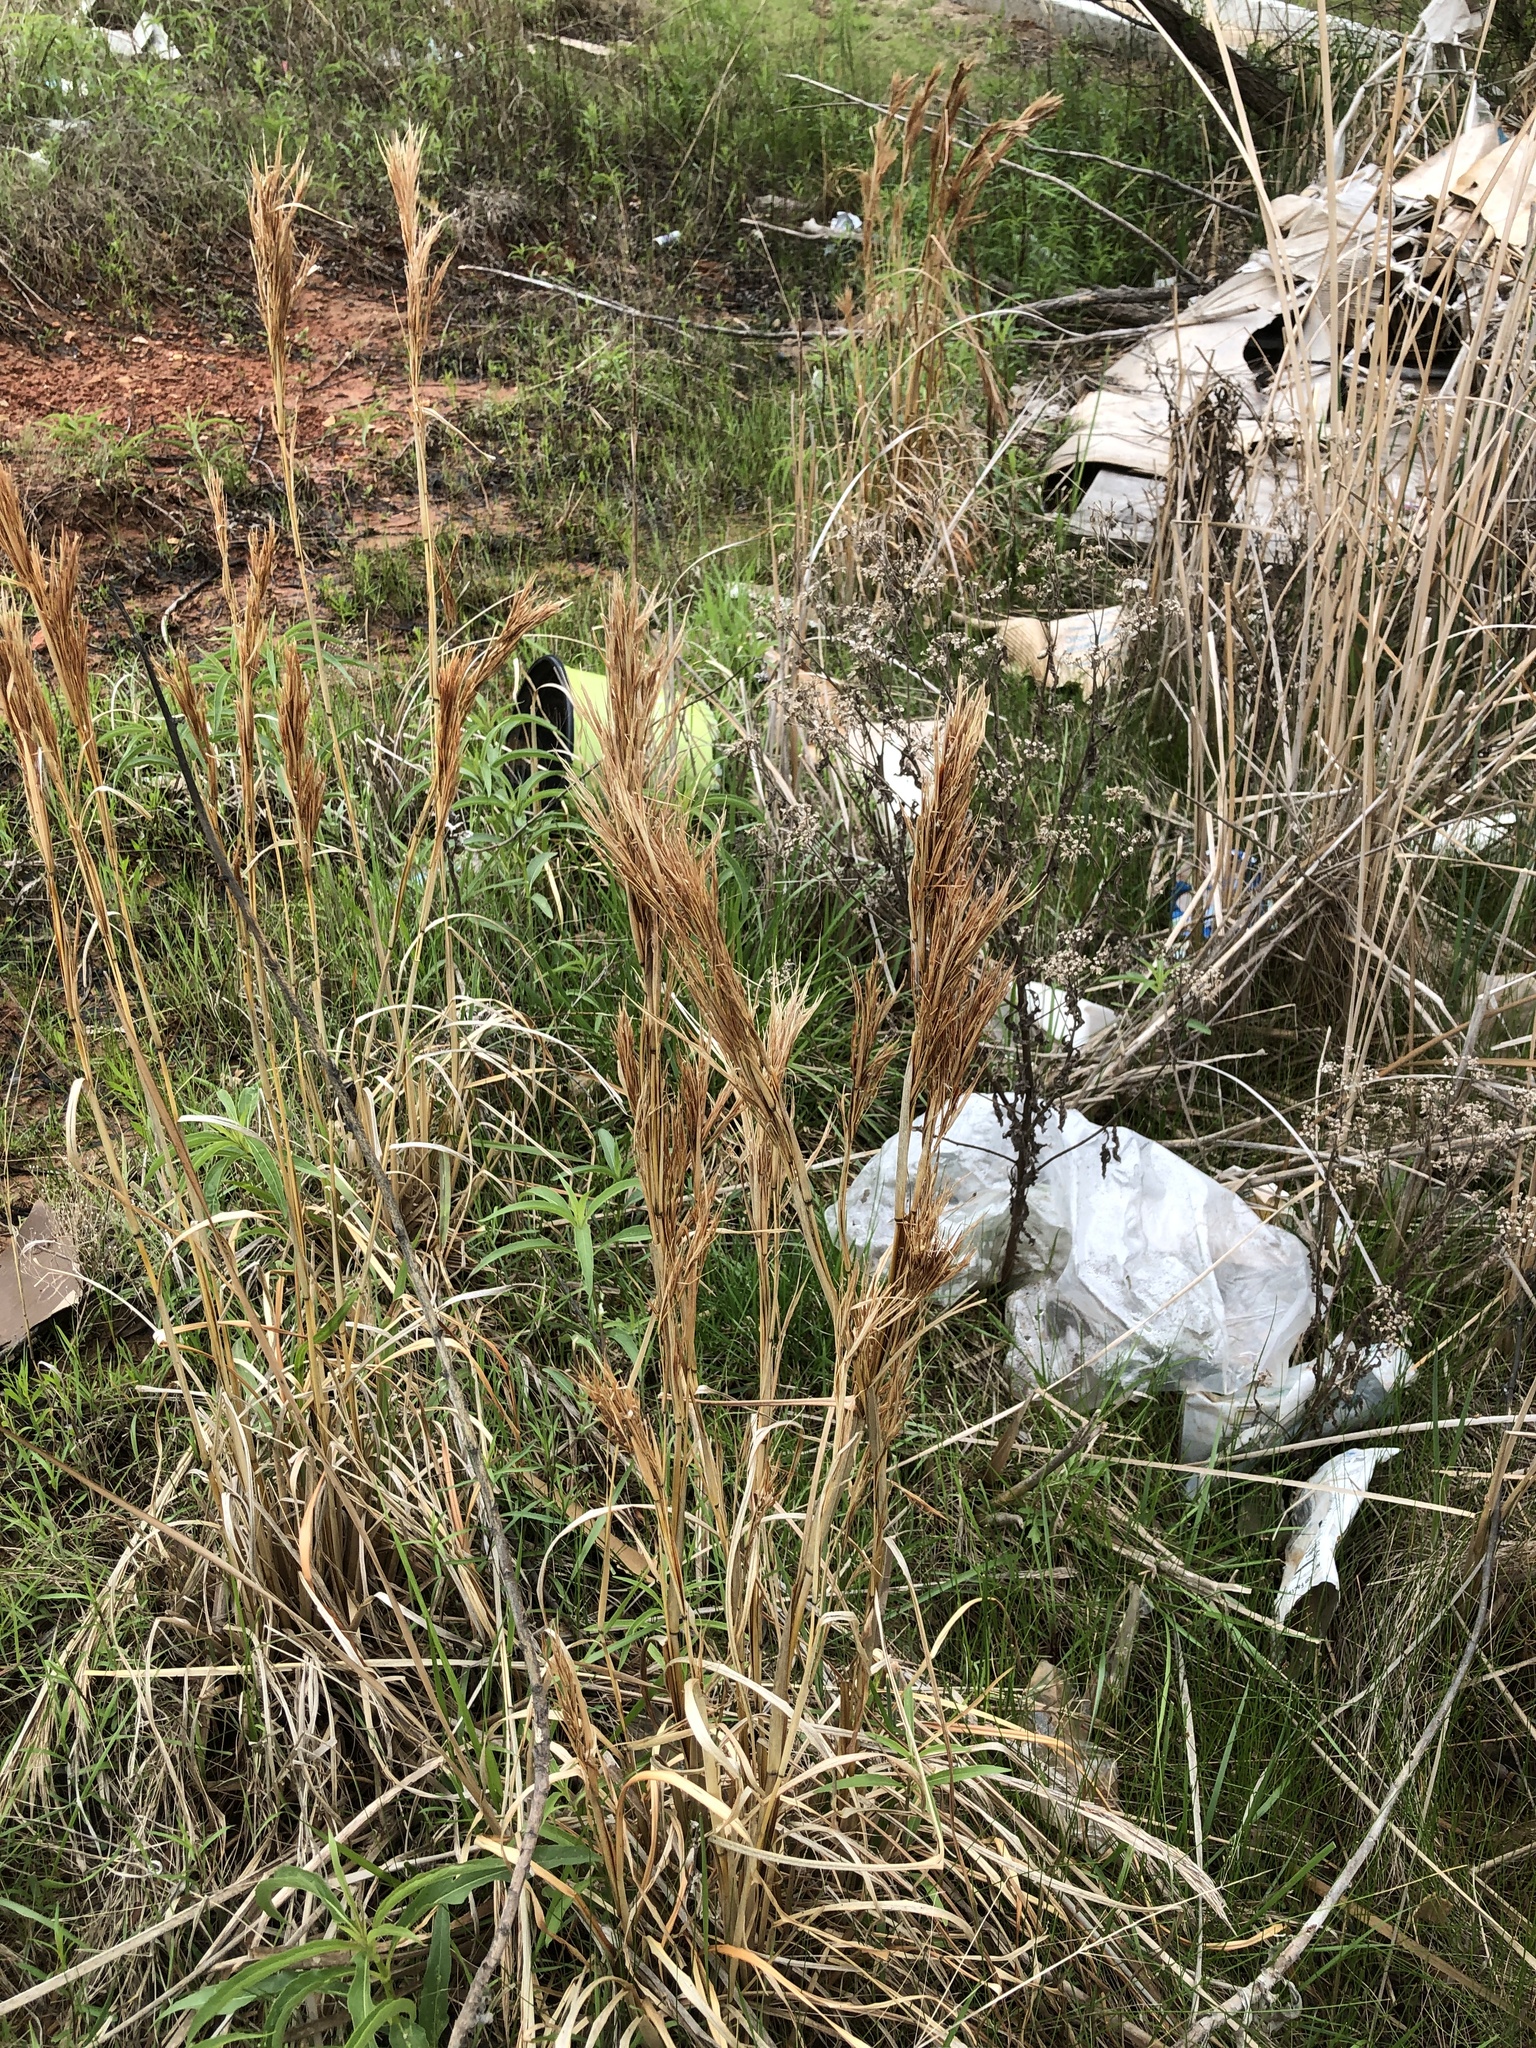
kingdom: Plantae
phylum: Tracheophyta
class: Liliopsida
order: Poales
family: Poaceae
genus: Andropogon
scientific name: Andropogon tenuispatheus
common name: Bushy bluestem
